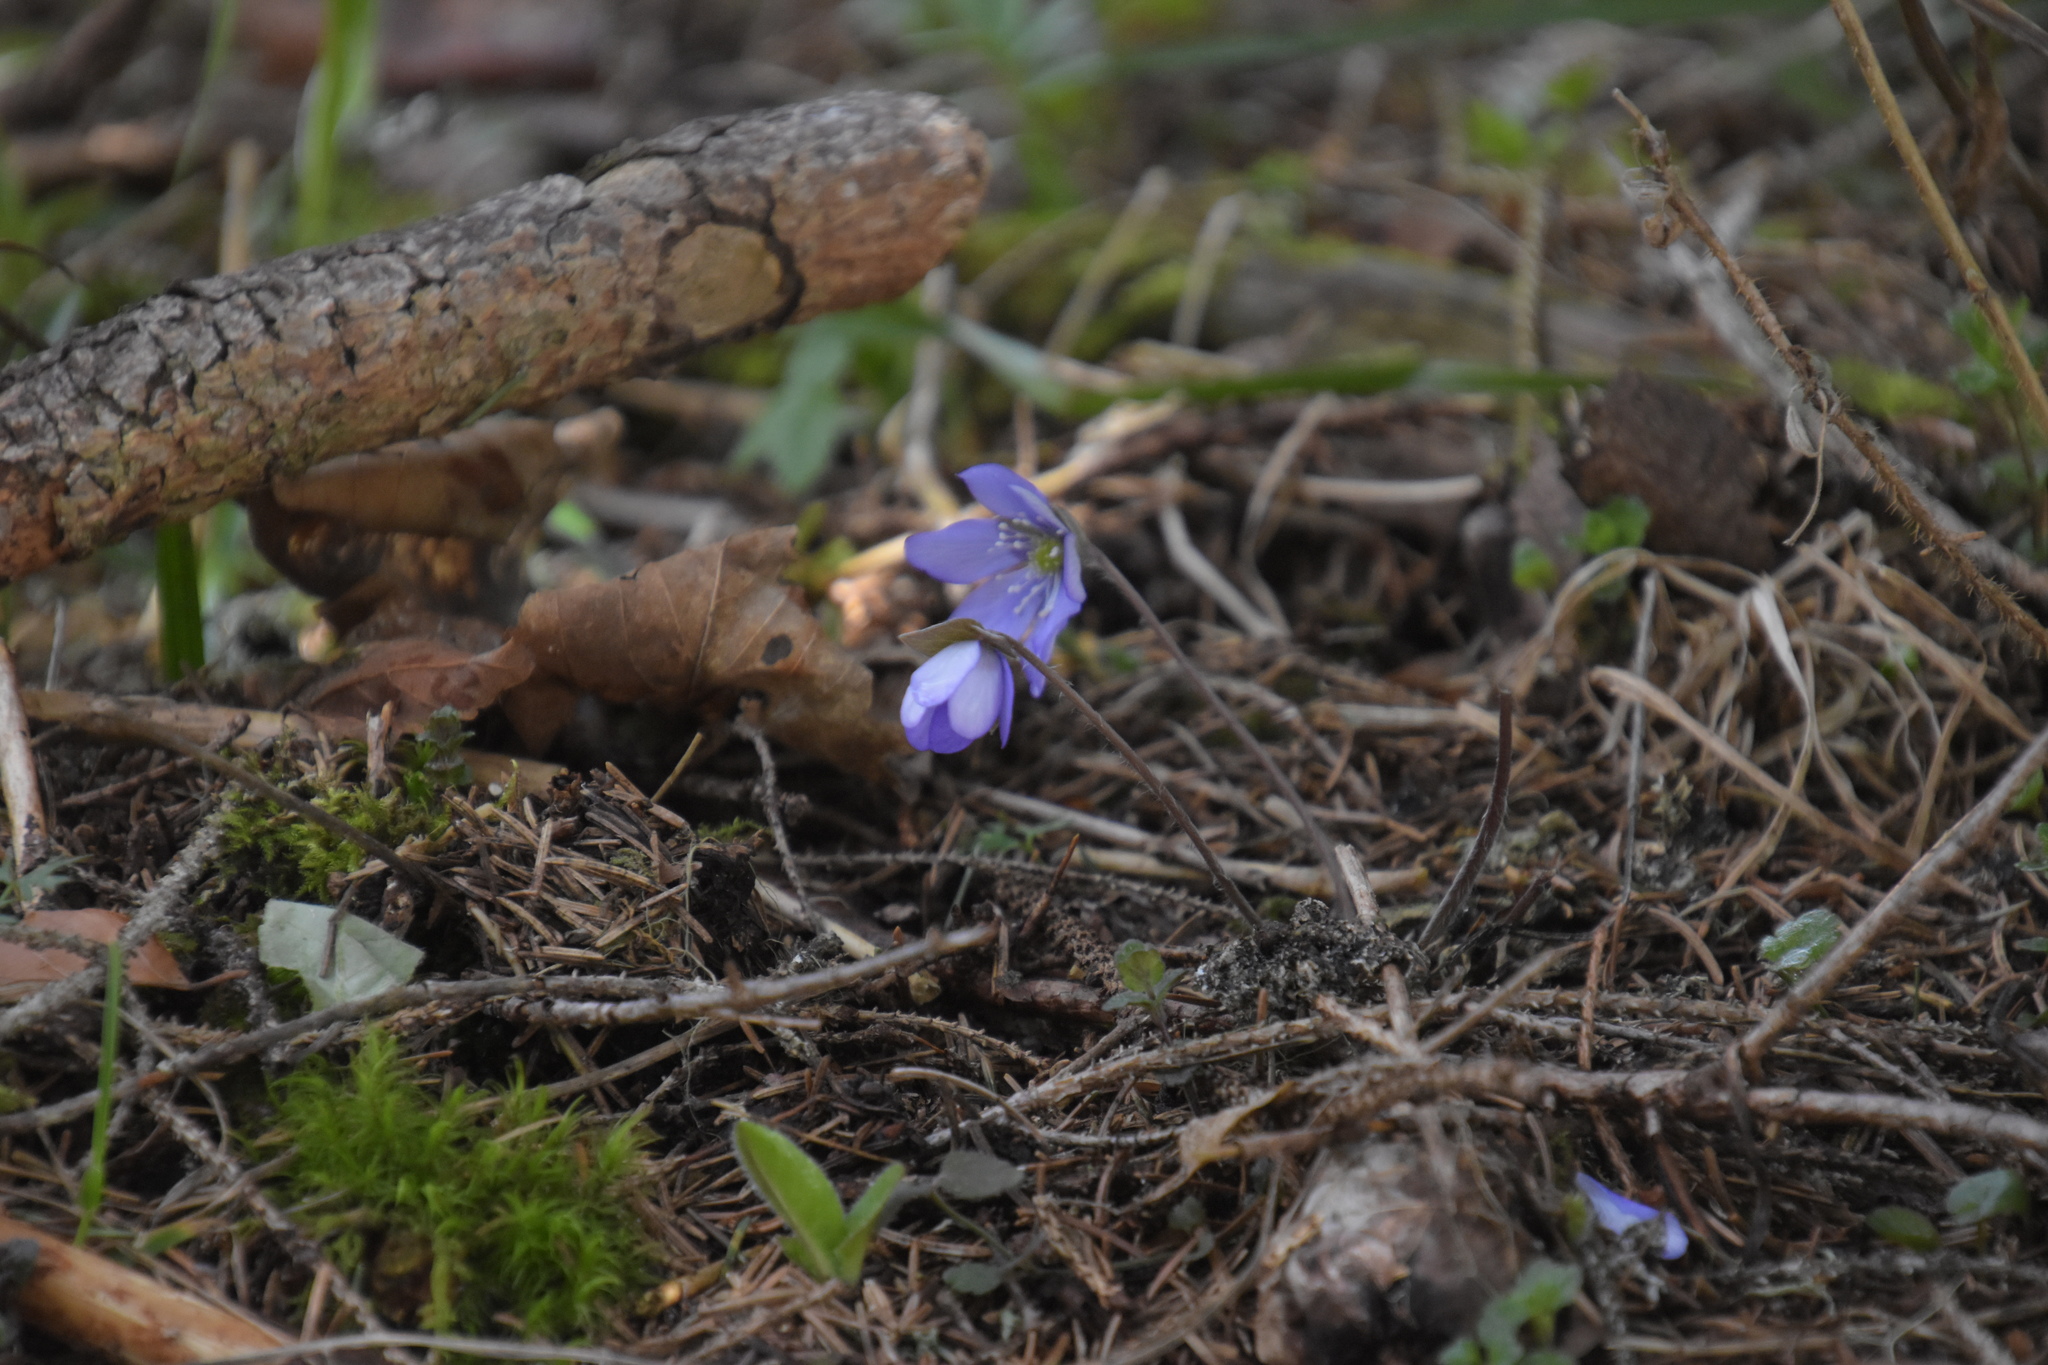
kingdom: Plantae
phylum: Tracheophyta
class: Magnoliopsida
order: Ranunculales
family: Ranunculaceae
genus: Hepatica
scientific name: Hepatica nobilis
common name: Liverleaf
